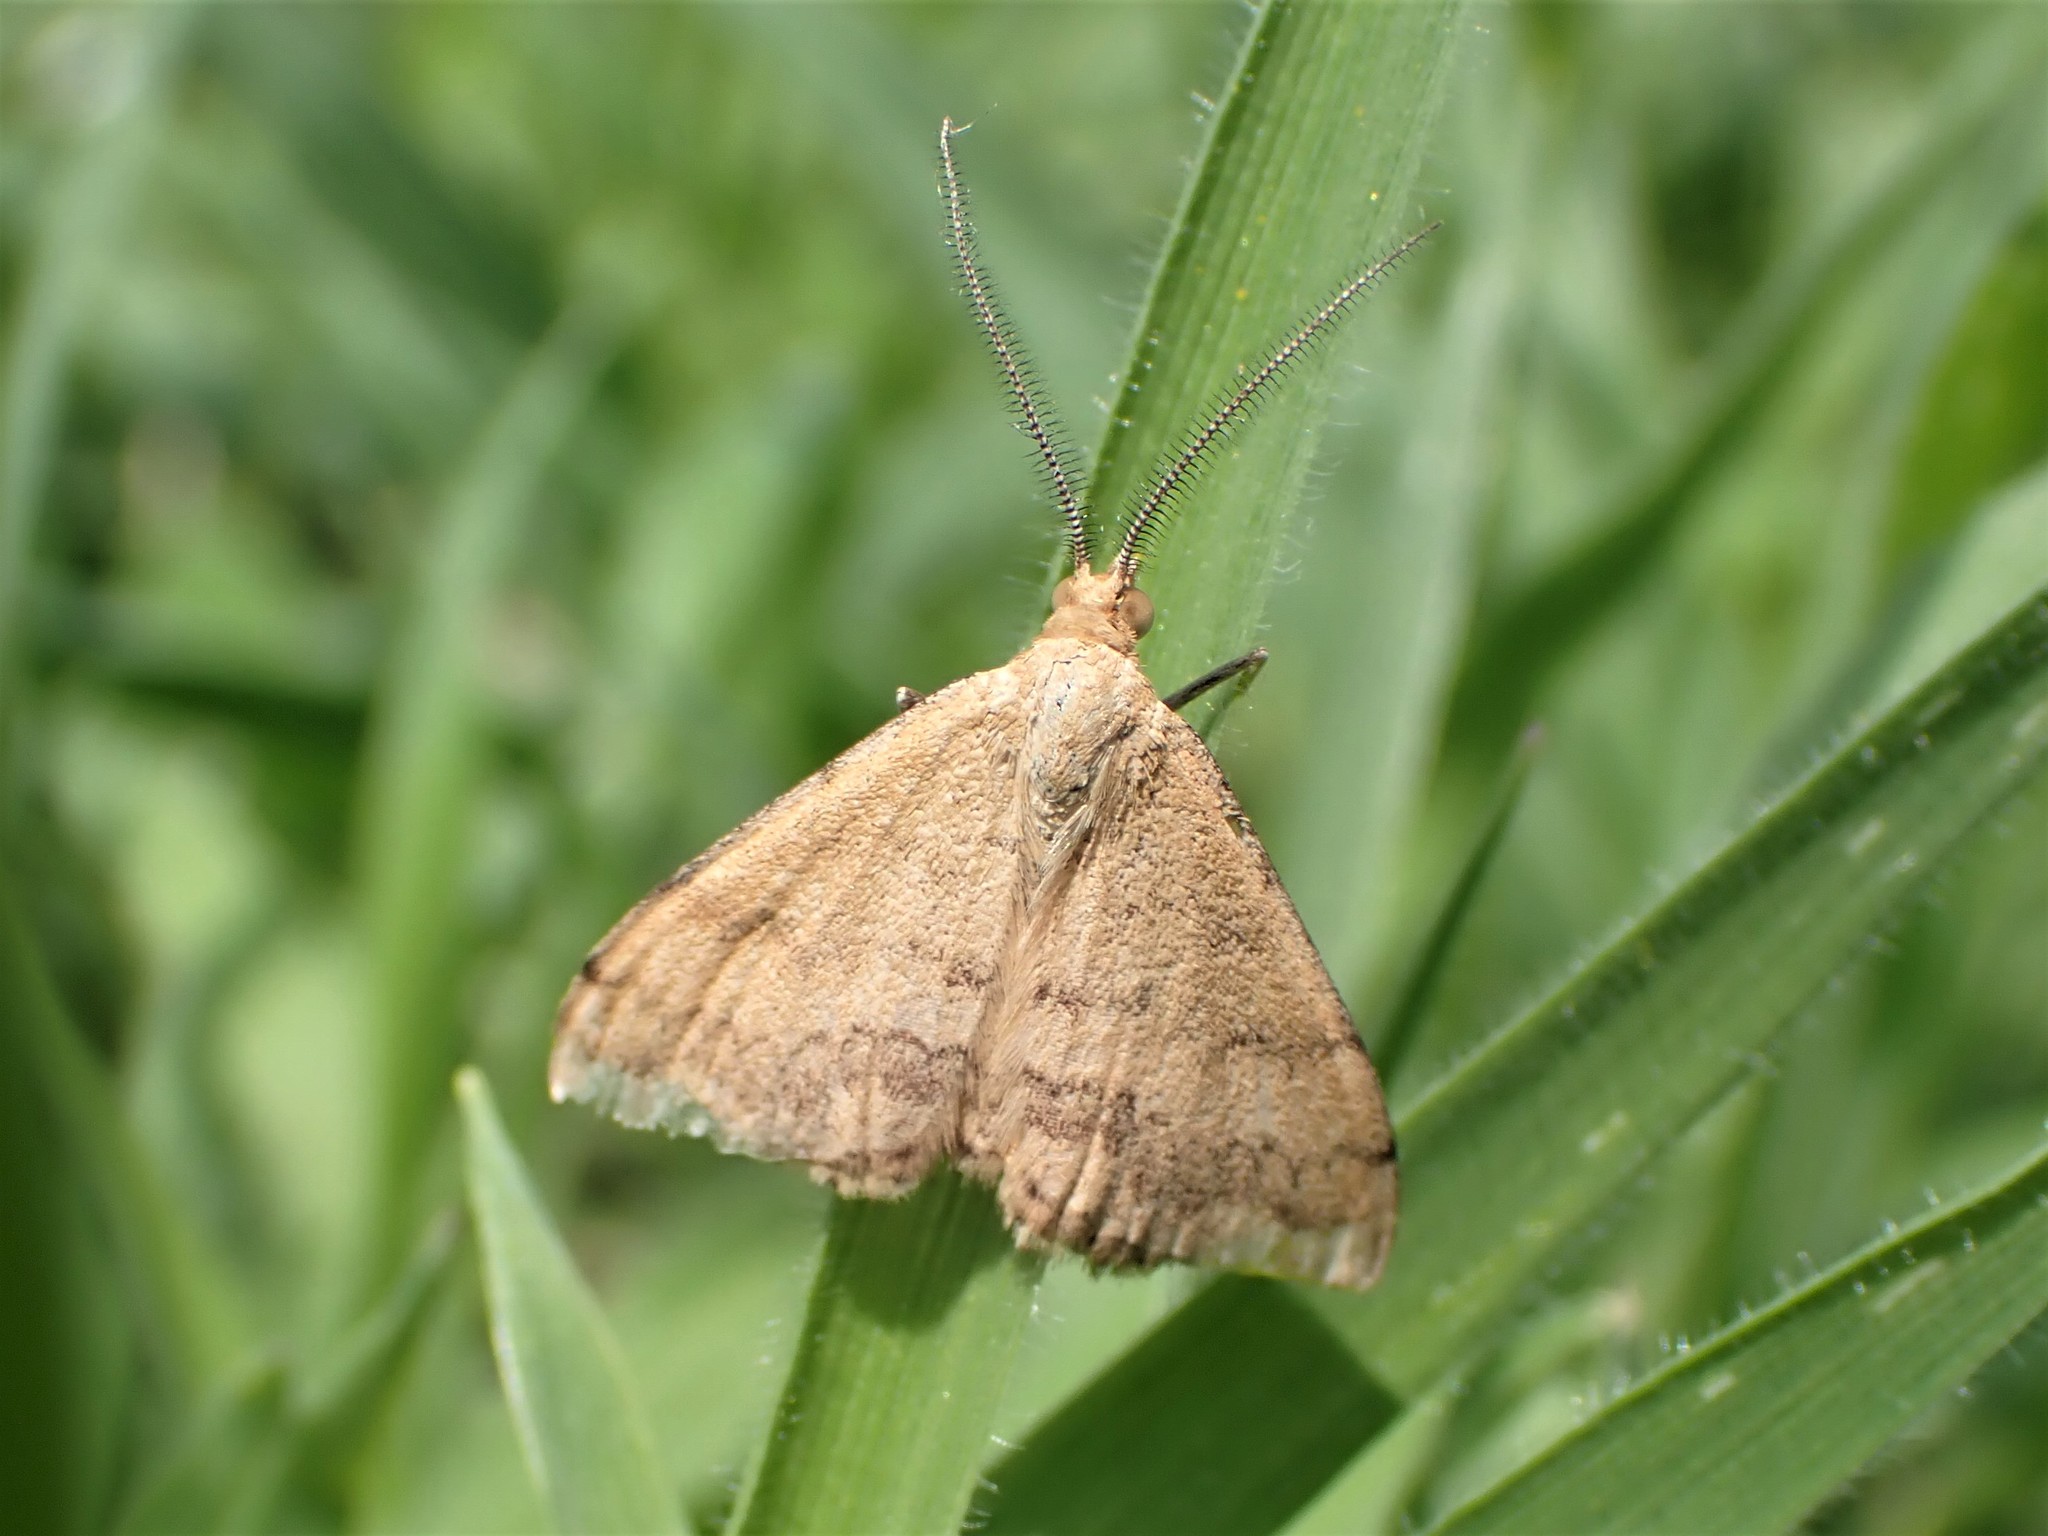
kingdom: Animalia
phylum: Arthropoda
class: Insecta
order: Lepidoptera
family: Geometridae
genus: Scopula
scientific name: Scopula rubraria
